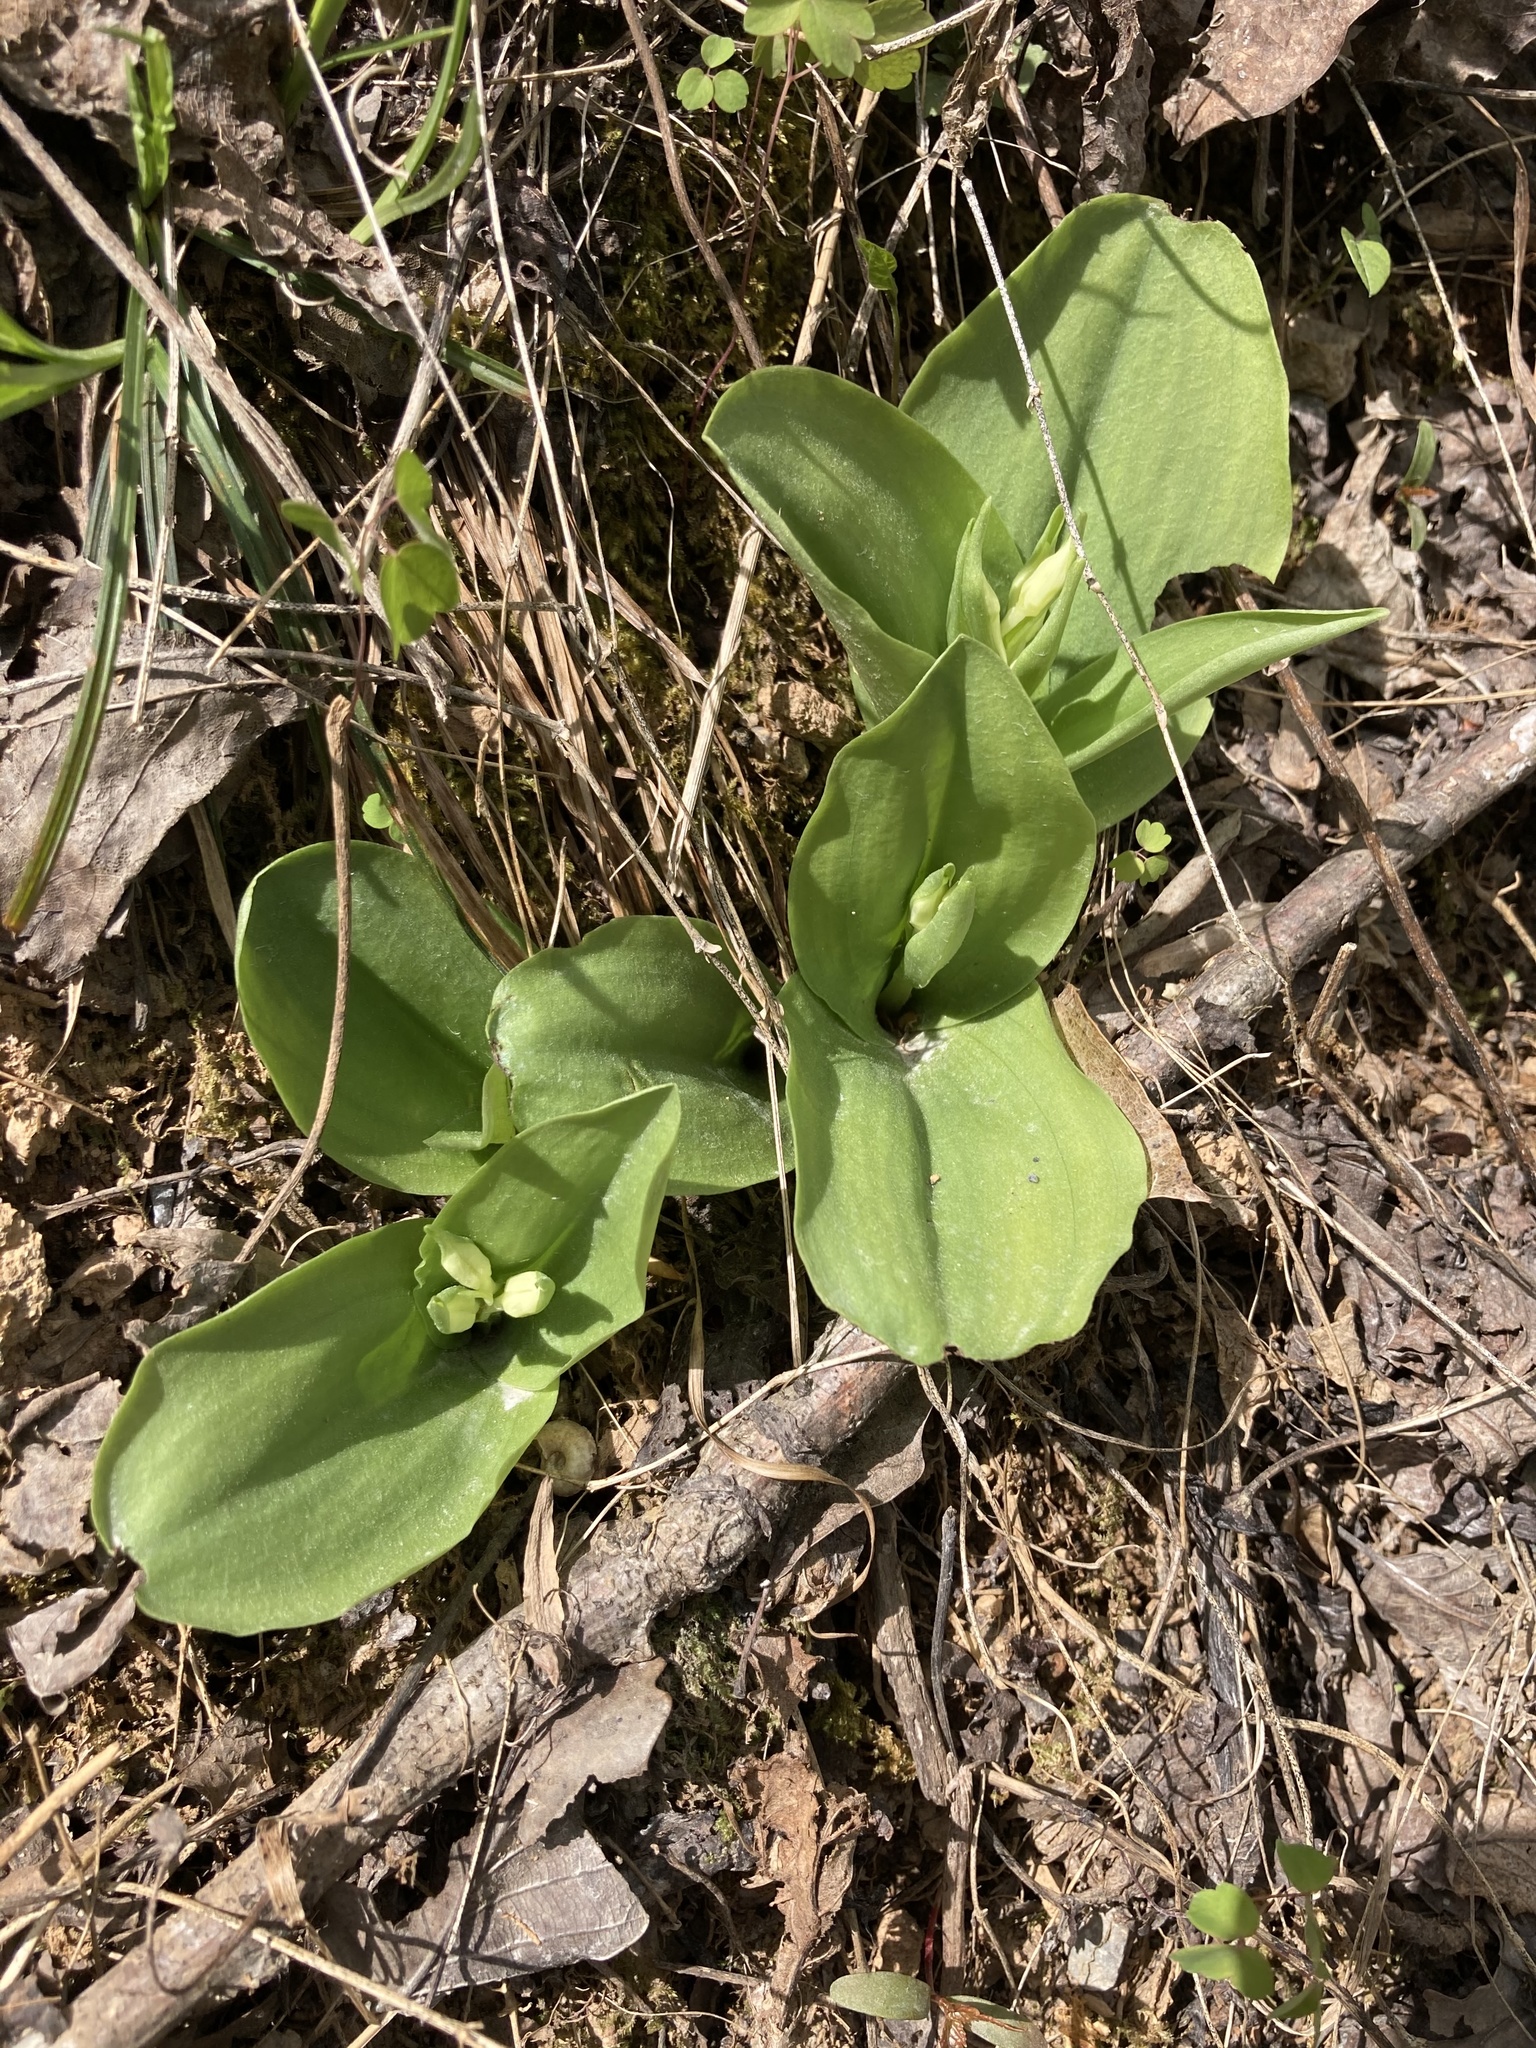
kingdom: Plantae
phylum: Tracheophyta
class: Liliopsida
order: Asparagales
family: Orchidaceae
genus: Galearis
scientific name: Galearis spectabilis
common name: Purple-hooded orchis
